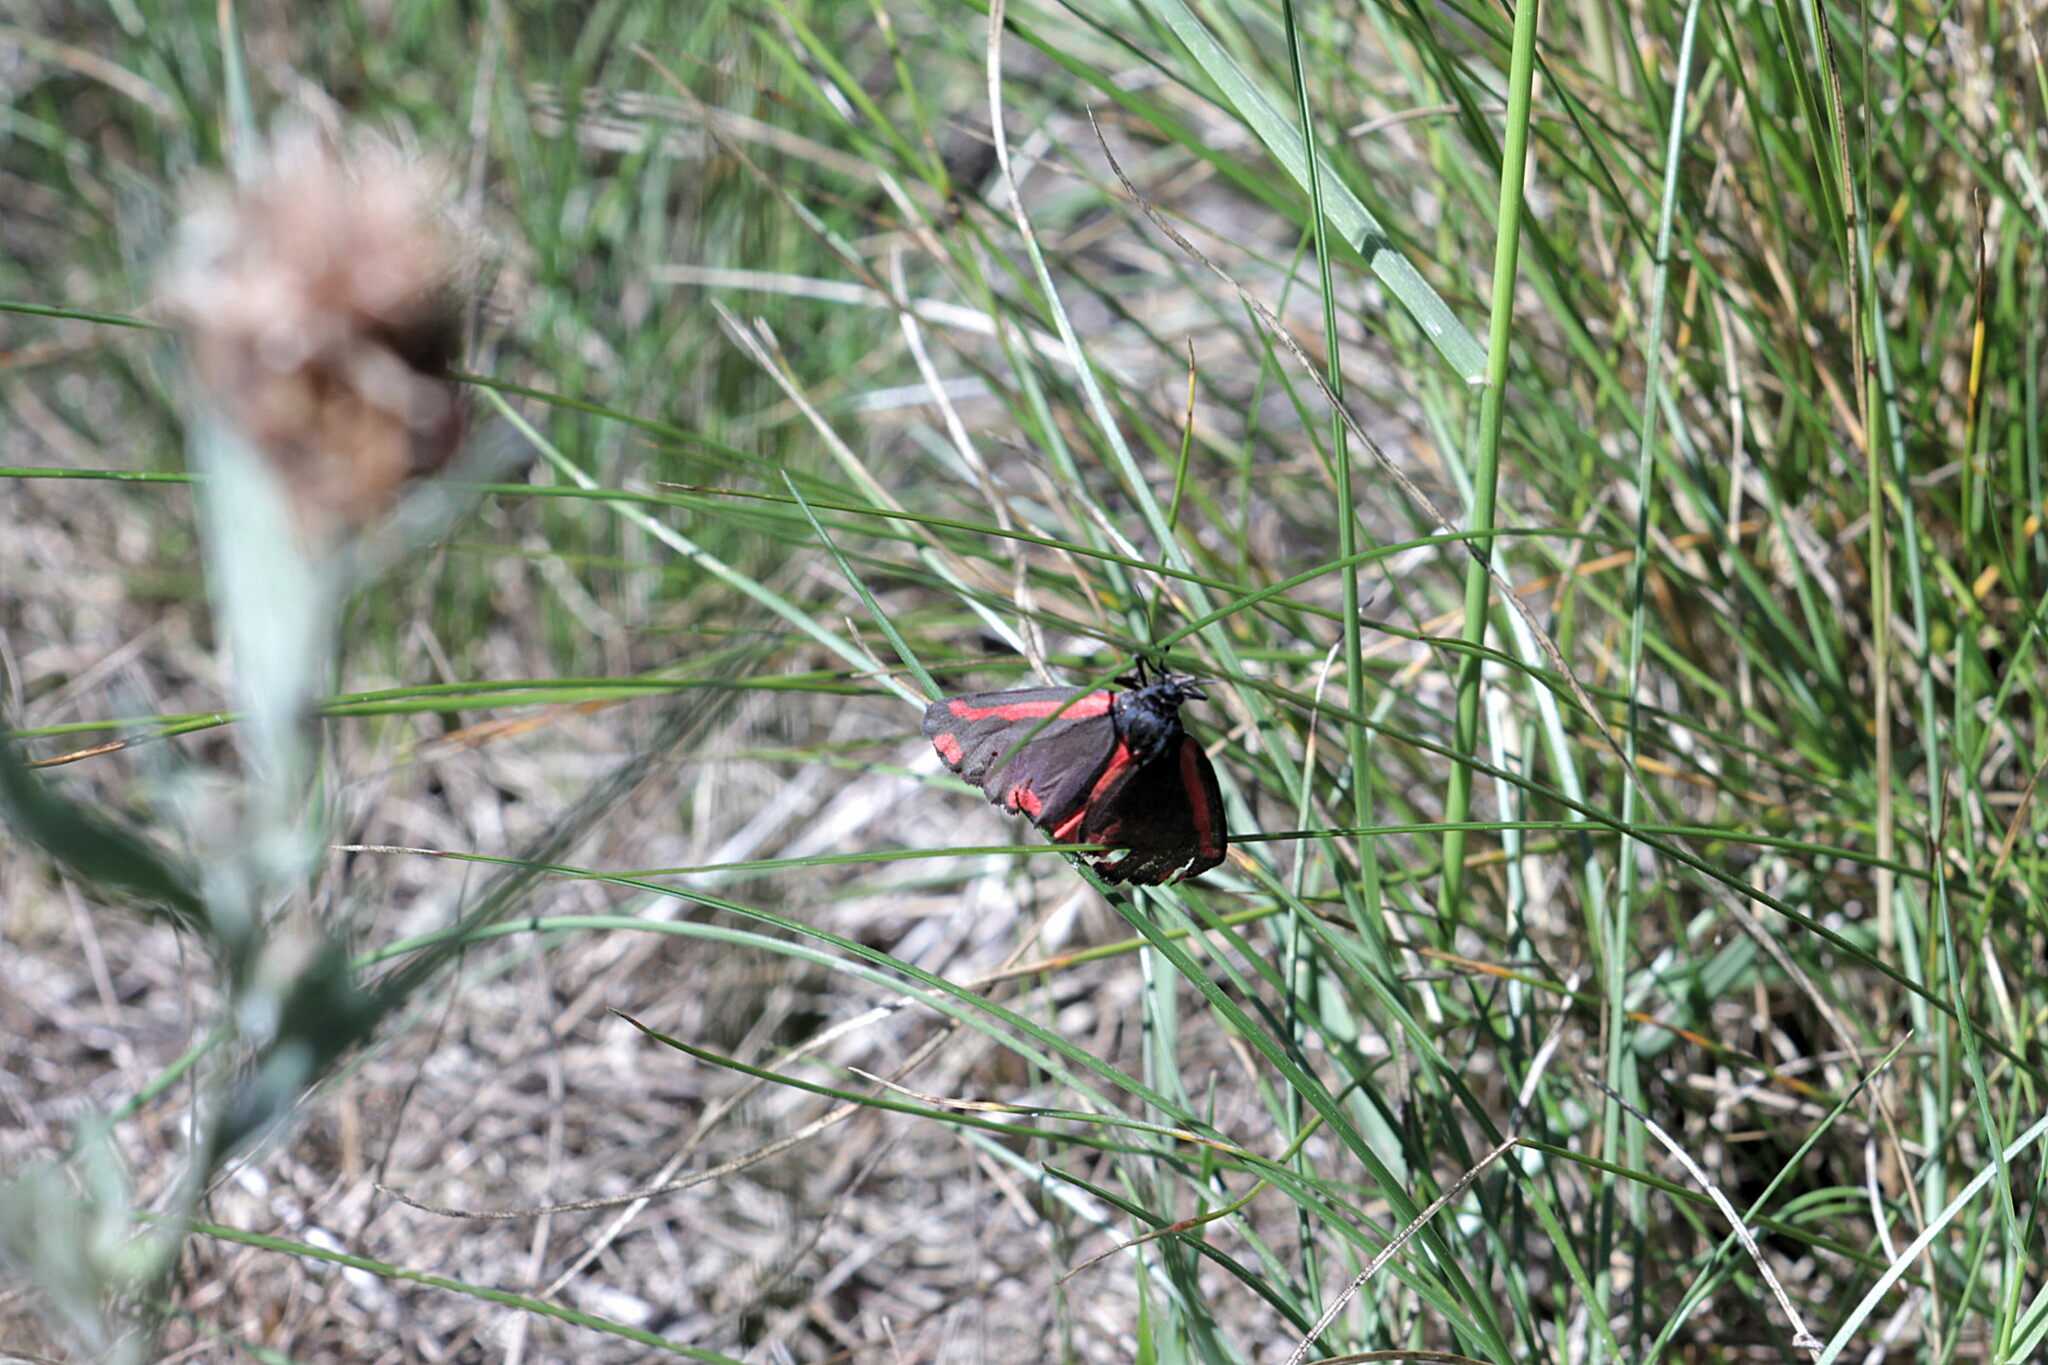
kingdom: Animalia
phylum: Arthropoda
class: Insecta
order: Lepidoptera
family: Erebidae
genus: Tyria
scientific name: Tyria jacobaeae
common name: Cinnabar
